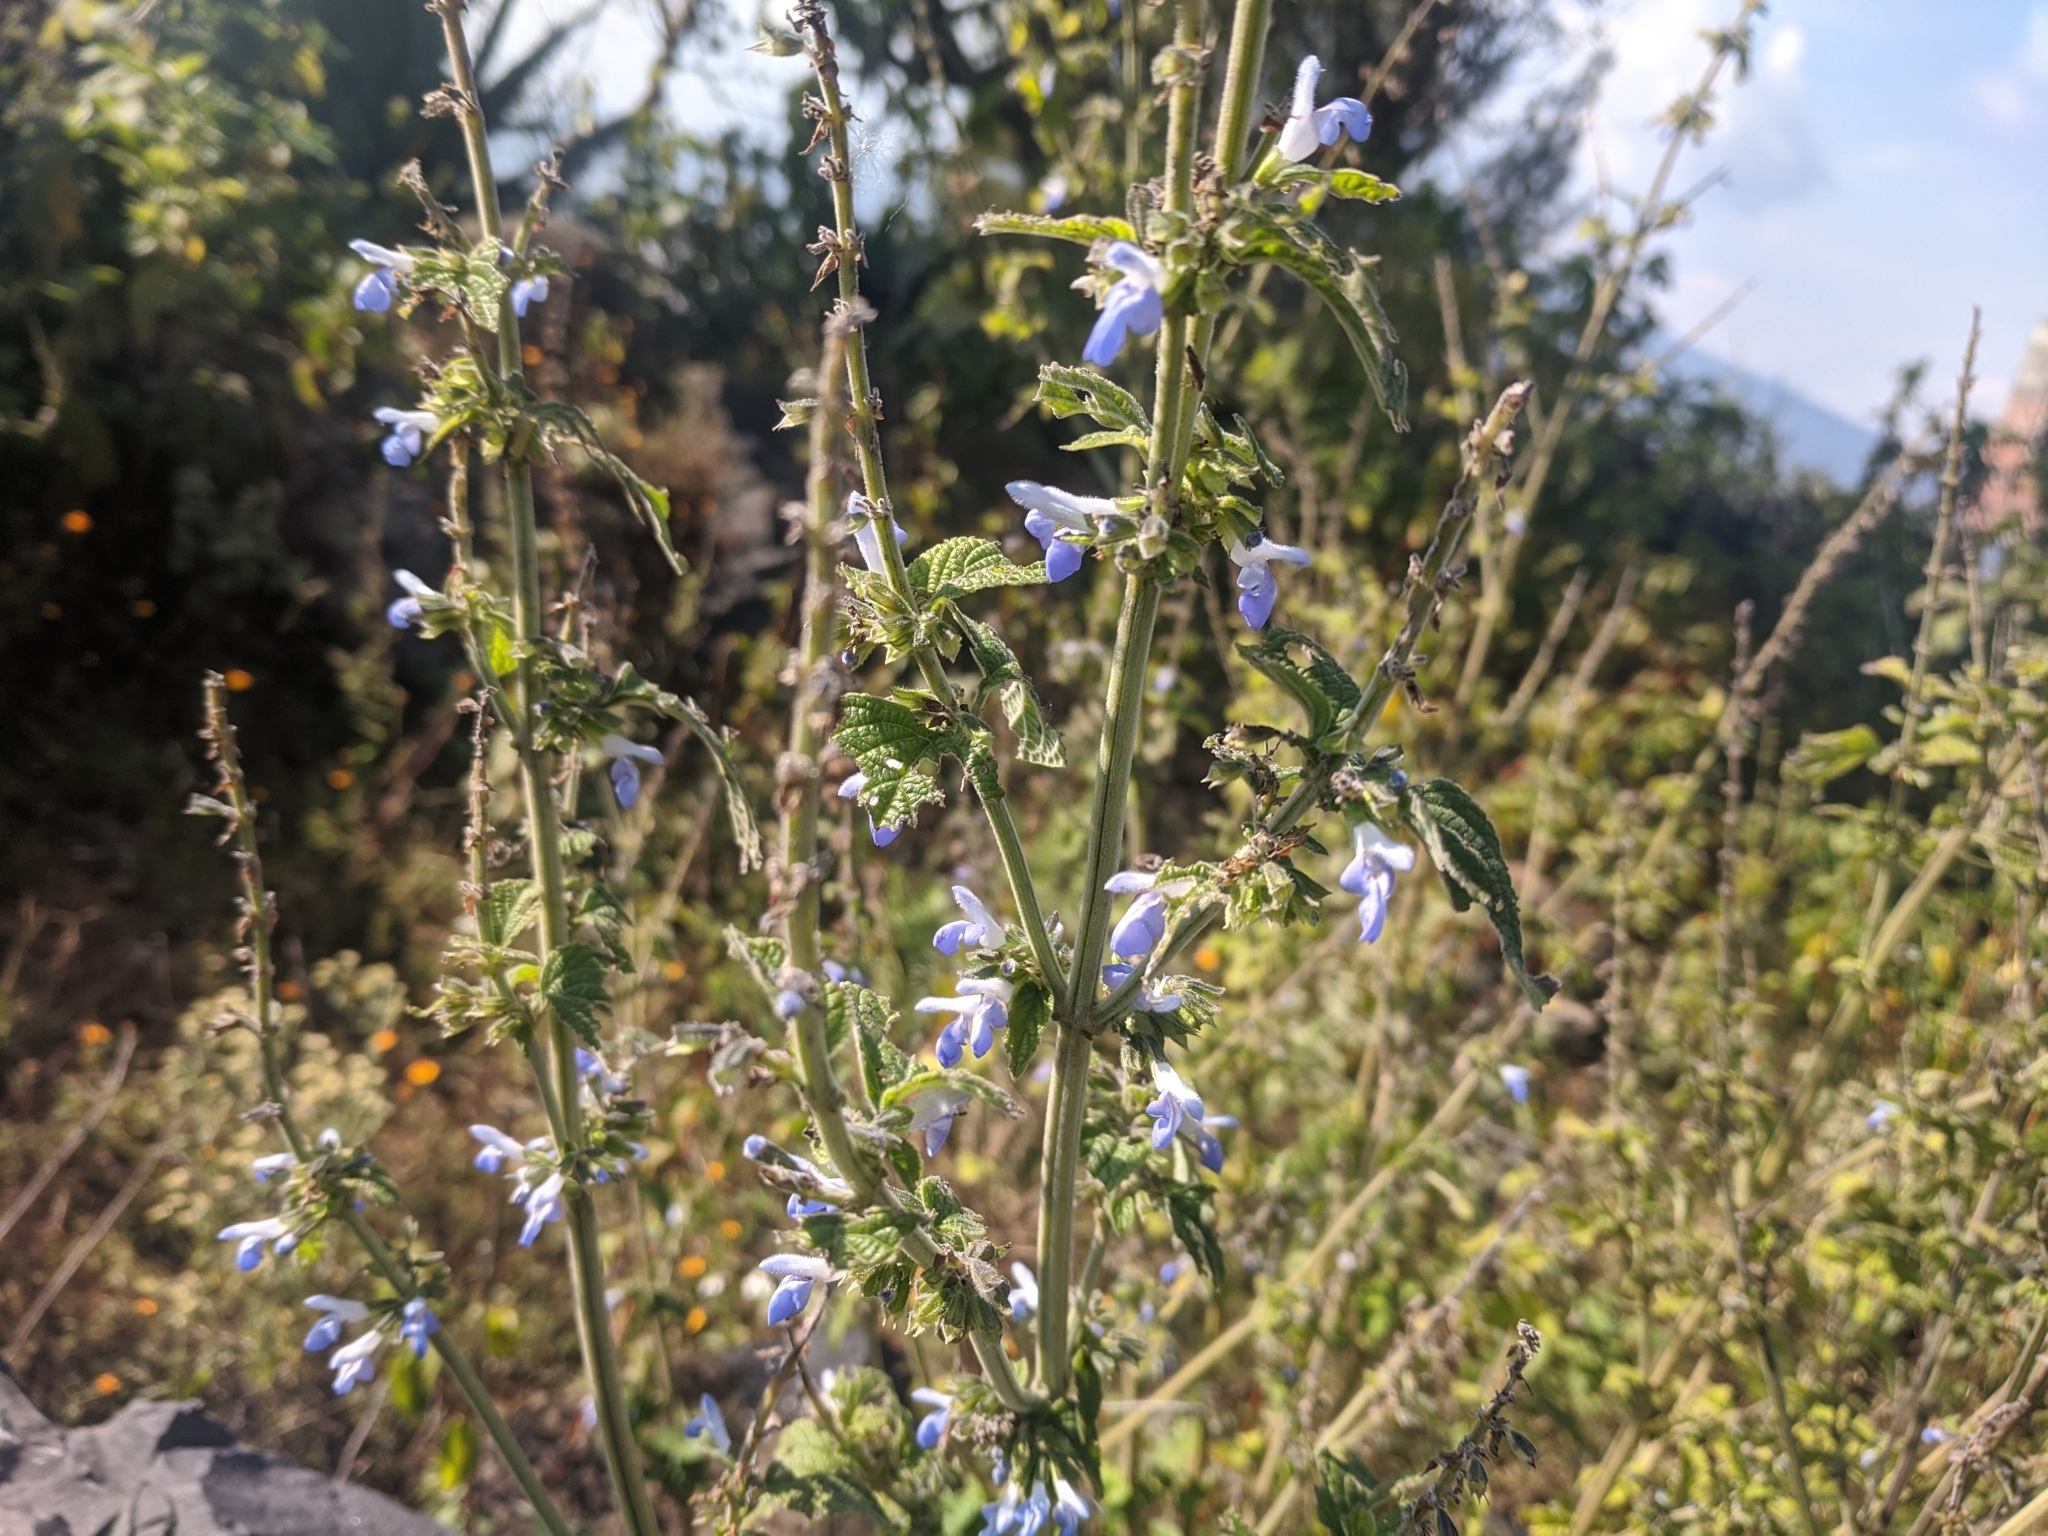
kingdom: Plantae
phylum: Tracheophyta
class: Magnoliopsida
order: Lamiales
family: Lamiaceae
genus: Salvia
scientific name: Salvia polystachia
